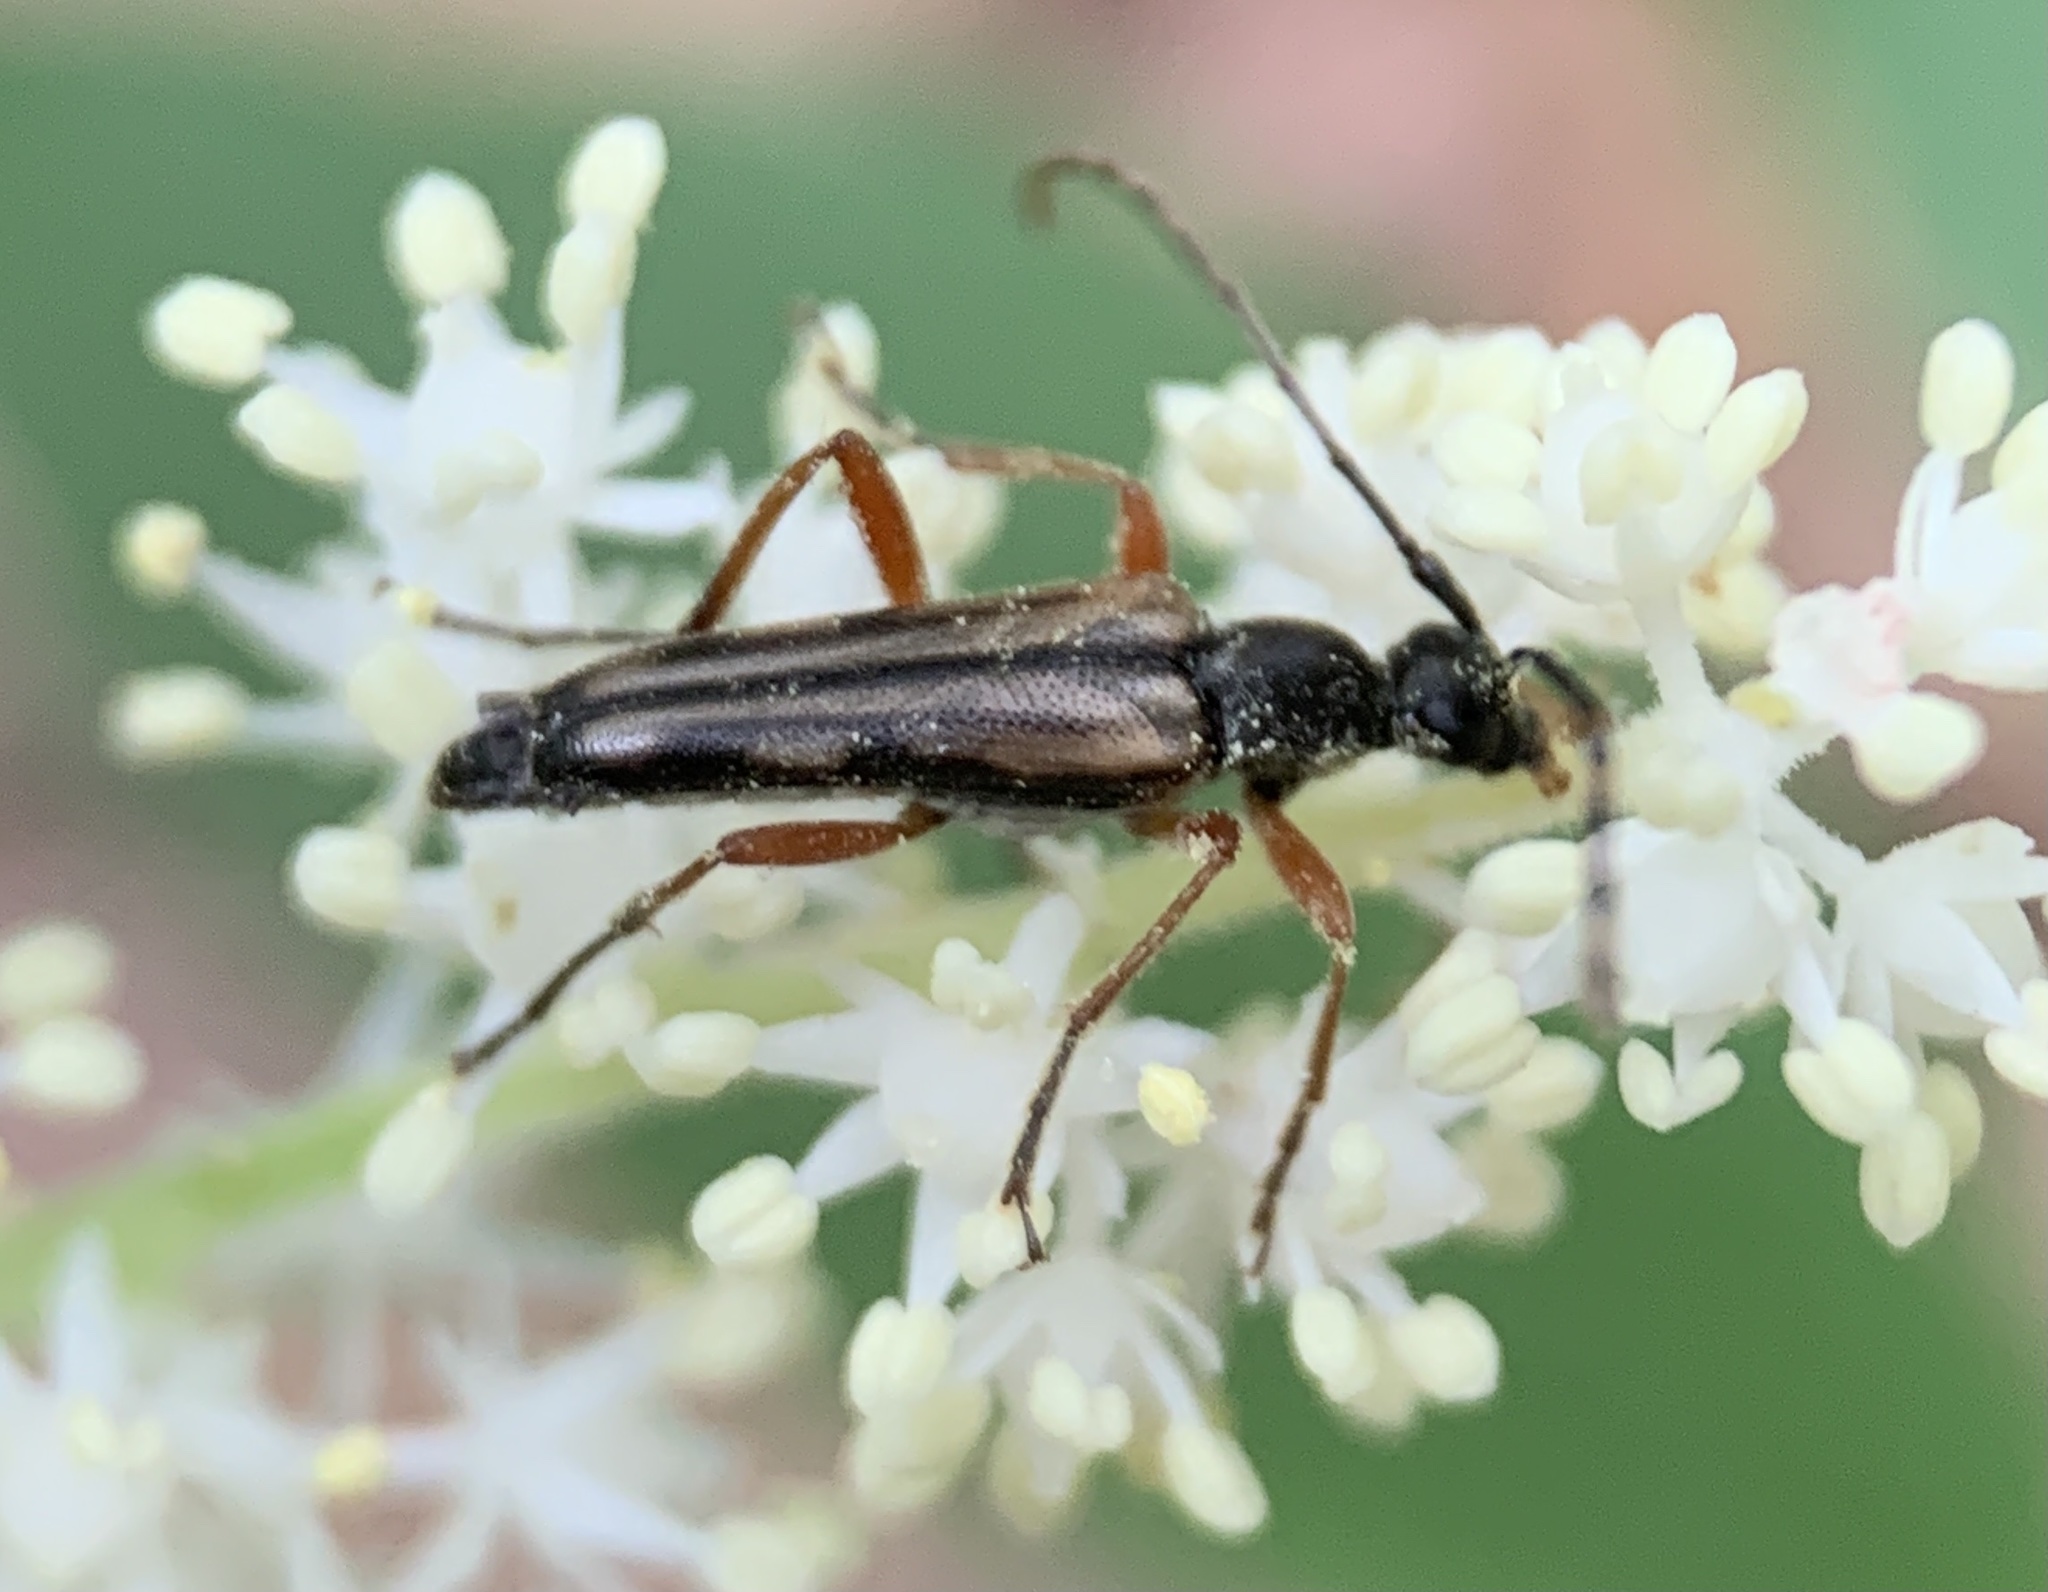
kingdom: Animalia
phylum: Arthropoda
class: Insecta
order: Coleoptera
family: Cerambycidae
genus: Analeptura
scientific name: Analeptura lineola
